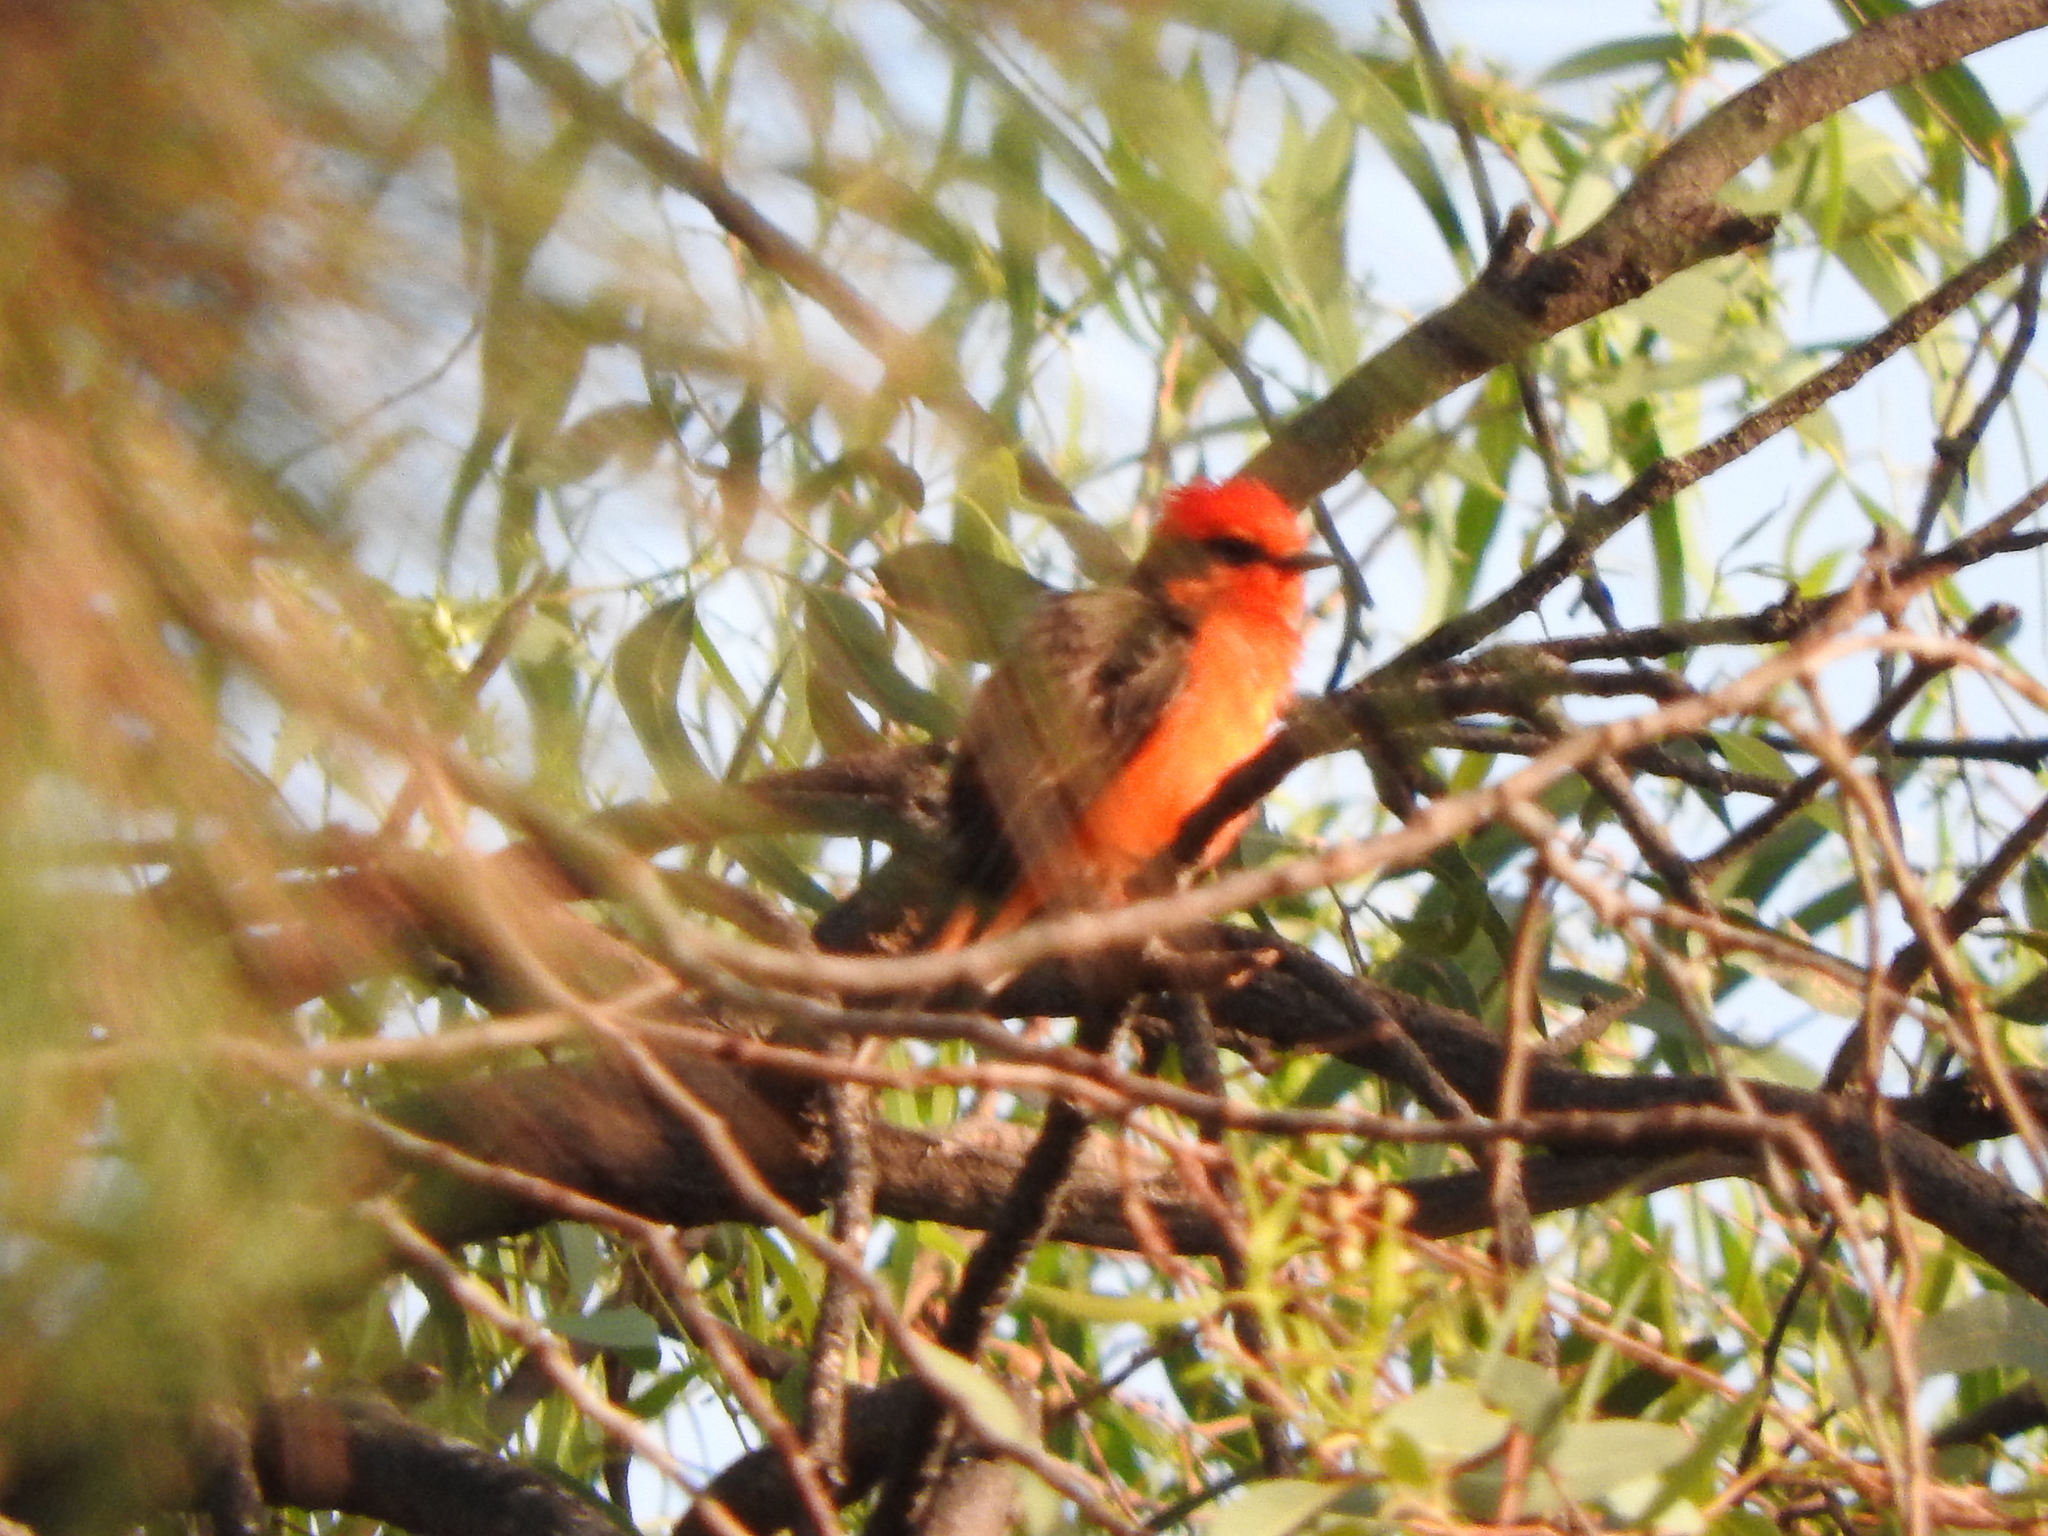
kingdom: Animalia
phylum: Chordata
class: Aves
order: Passeriformes
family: Tyrannidae
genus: Pyrocephalus
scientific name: Pyrocephalus rubinus
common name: Vermilion flycatcher
